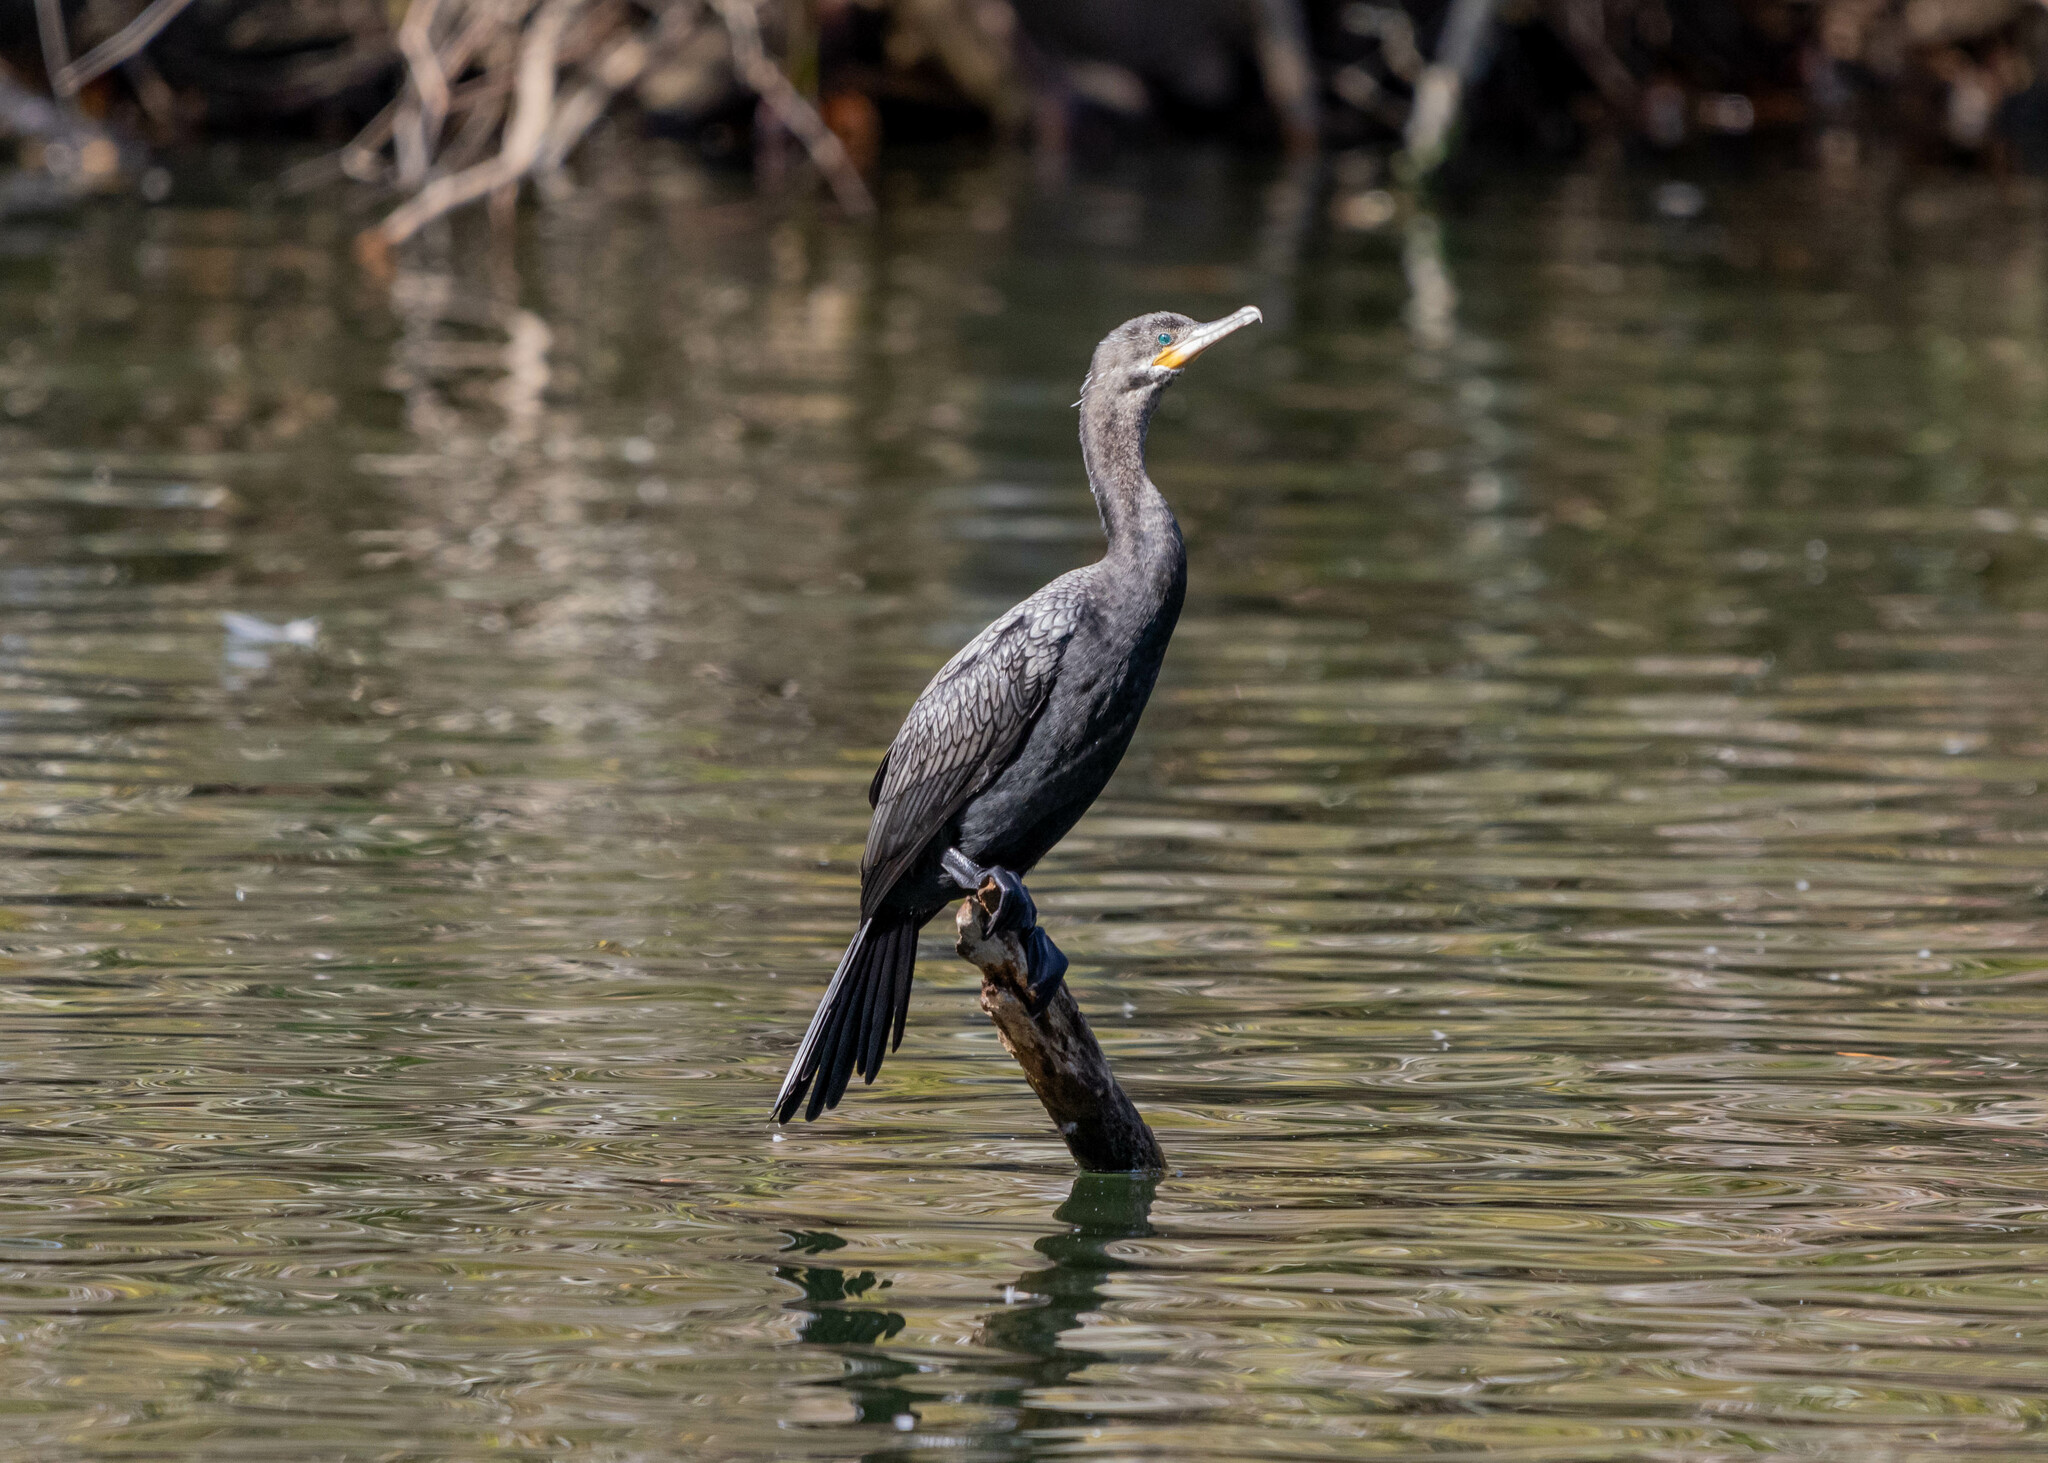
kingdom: Animalia
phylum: Chordata
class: Aves
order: Suliformes
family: Phalacrocoracidae
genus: Phalacrocorax
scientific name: Phalacrocorax brasilianus
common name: Neotropic cormorant
